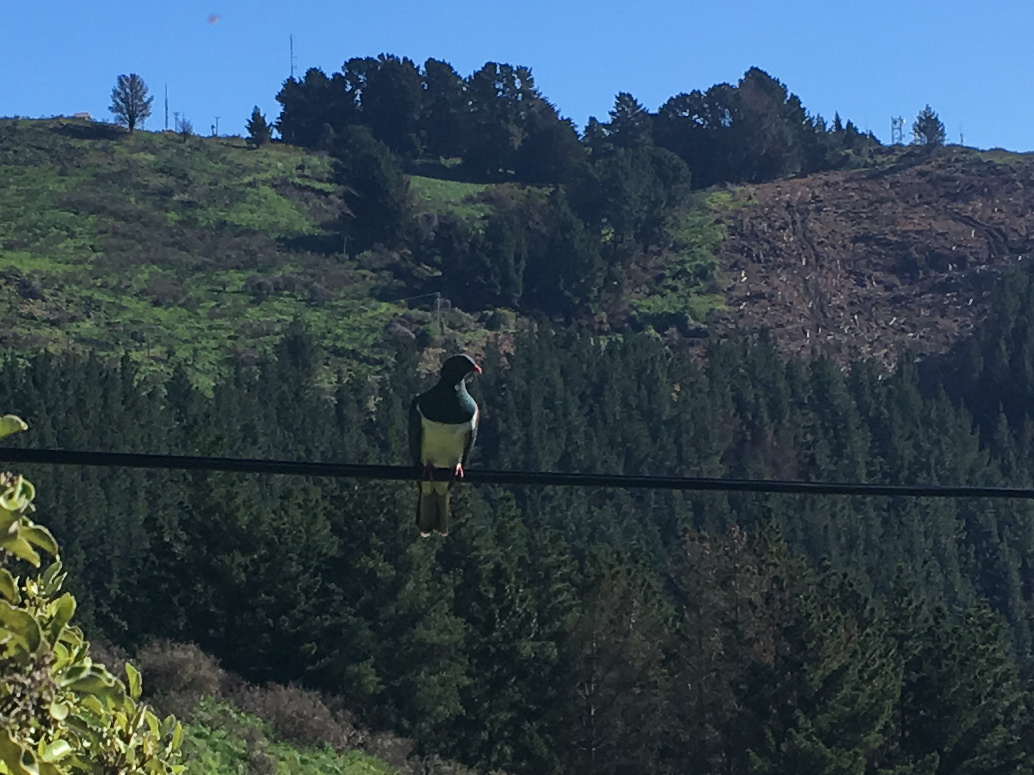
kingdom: Animalia
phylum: Chordata
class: Aves
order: Columbiformes
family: Columbidae
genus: Hemiphaga
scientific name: Hemiphaga novaeseelandiae
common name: New zealand pigeon
